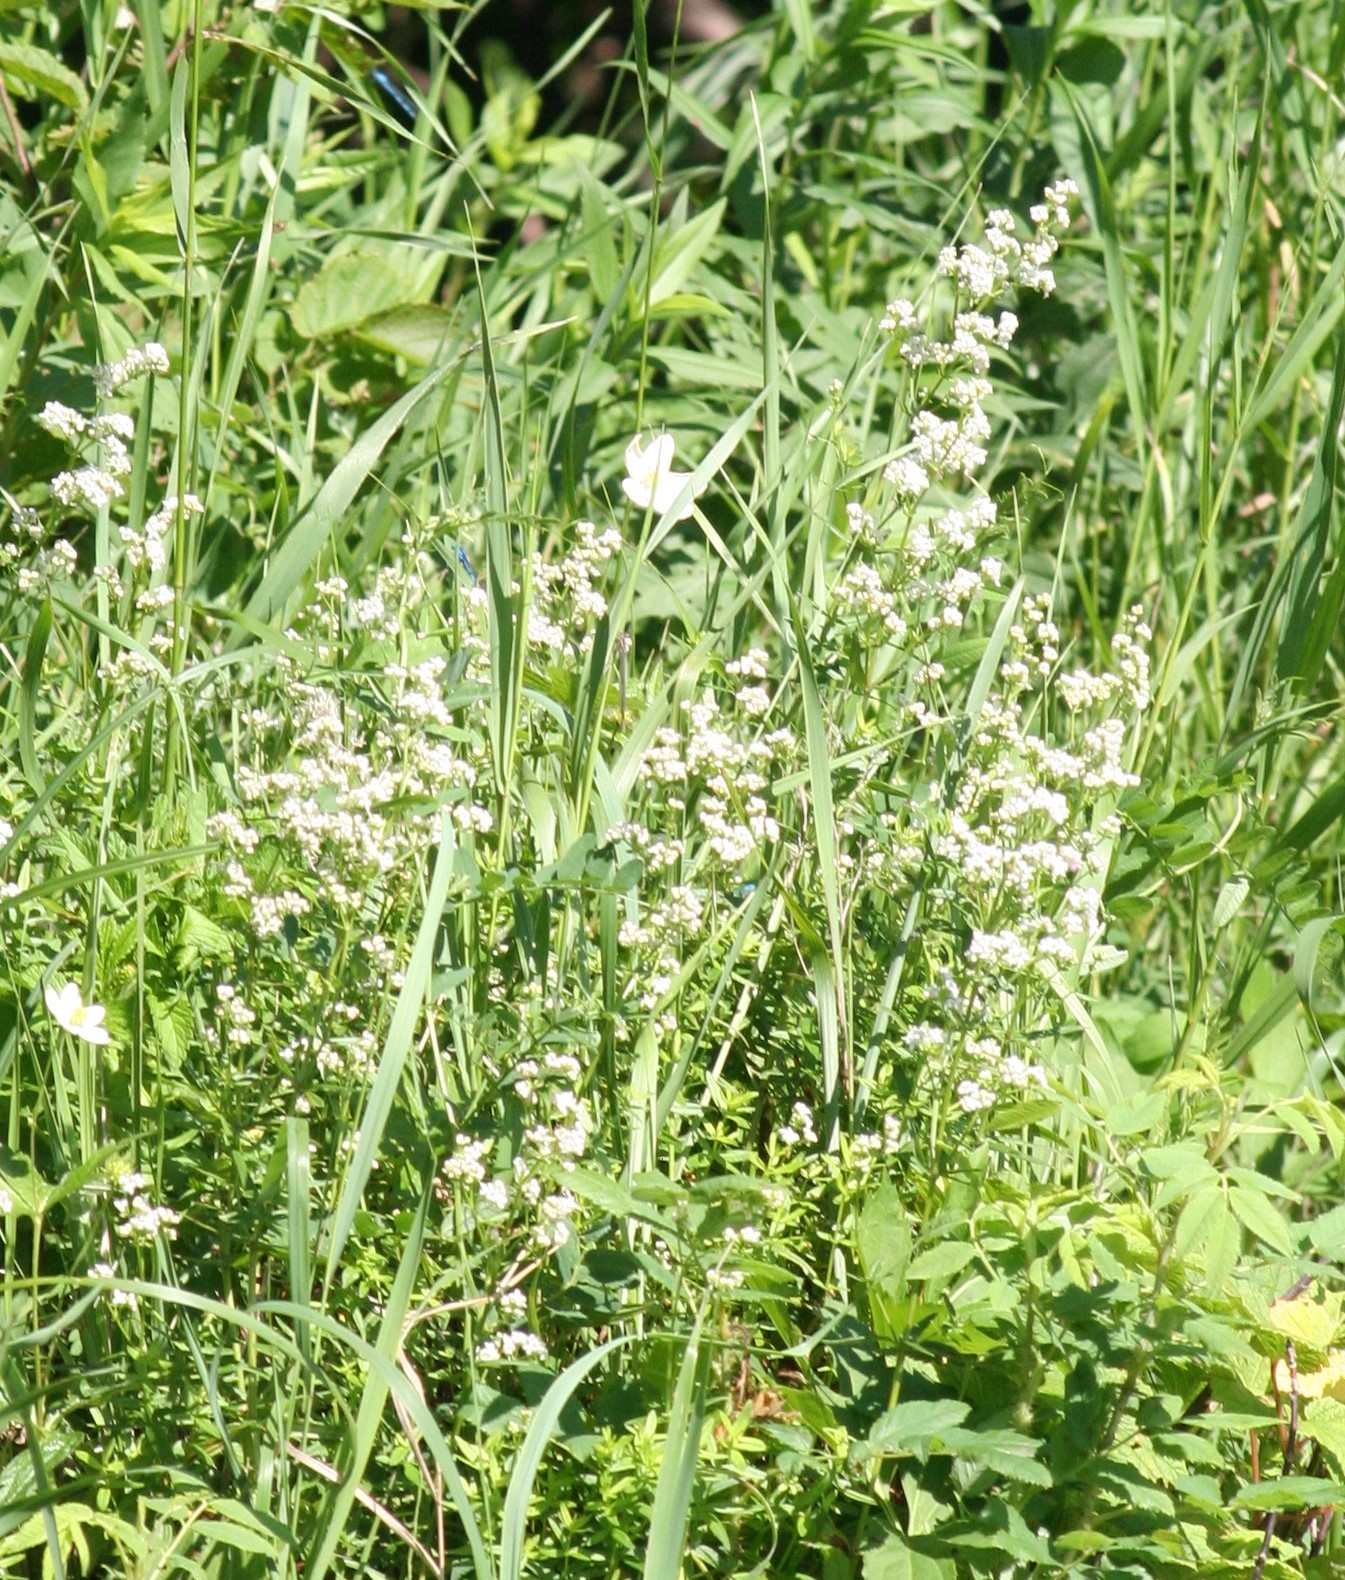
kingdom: Plantae
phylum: Tracheophyta
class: Magnoliopsida
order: Gentianales
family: Rubiaceae
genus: Galium
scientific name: Galium boreale
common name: Northern bedstraw
